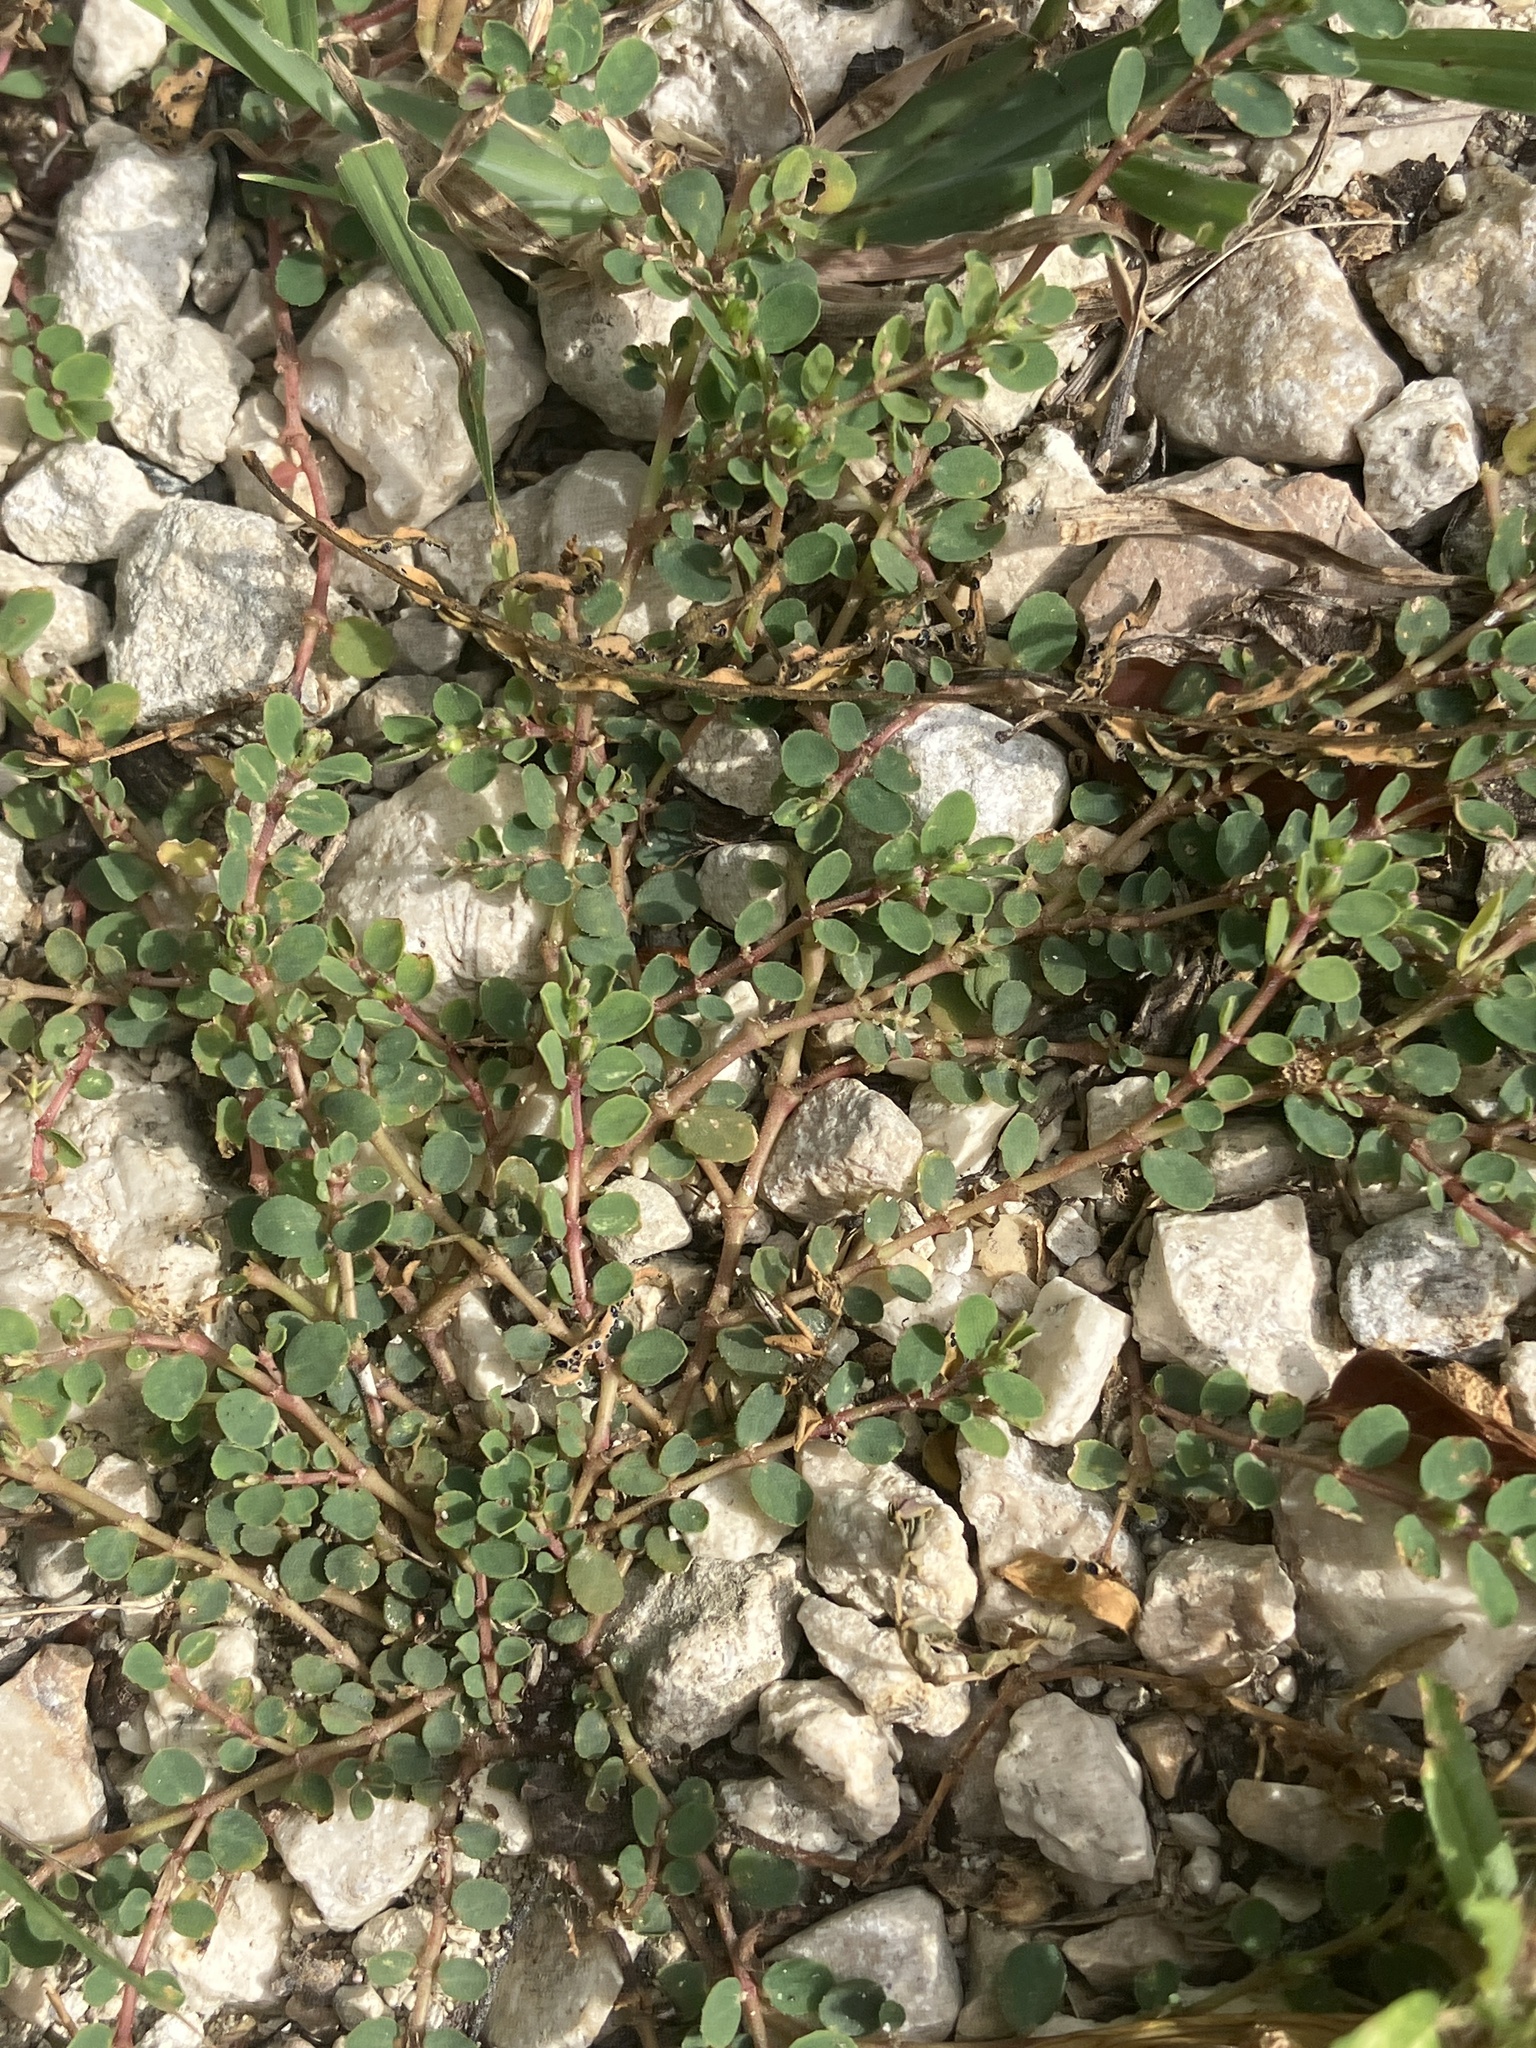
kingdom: Plantae
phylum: Tracheophyta
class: Magnoliopsida
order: Malpighiales
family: Euphorbiaceae
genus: Euphorbia
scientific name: Euphorbia prostrata
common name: Prostrate sandmat
